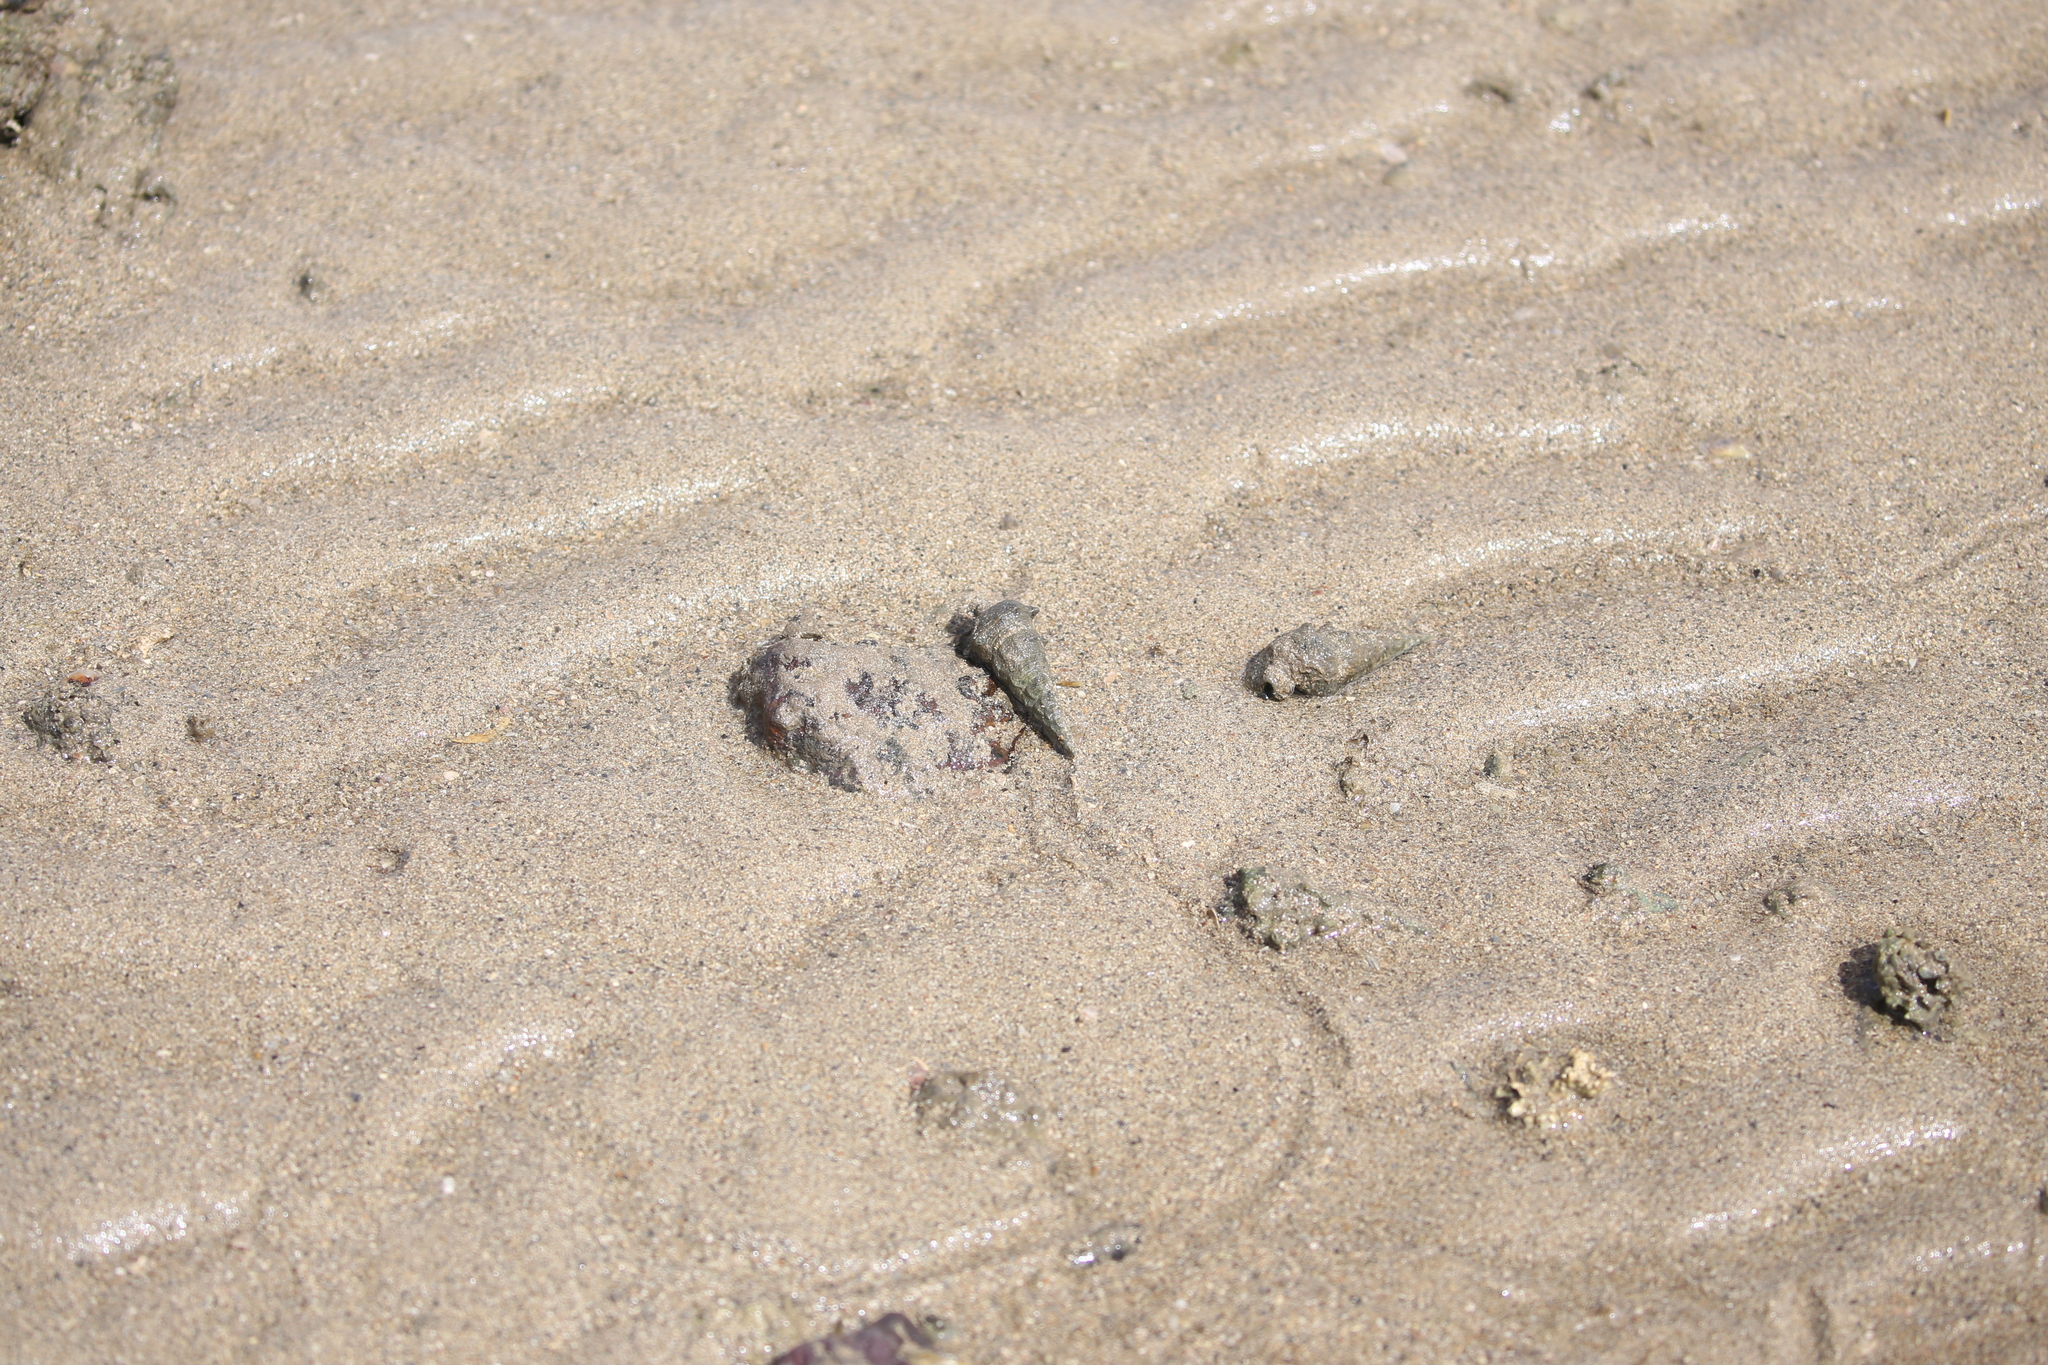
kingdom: Animalia
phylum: Mollusca
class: Gastropoda
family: Batillariidae
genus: Pyrazus
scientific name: Pyrazus ebeninus
